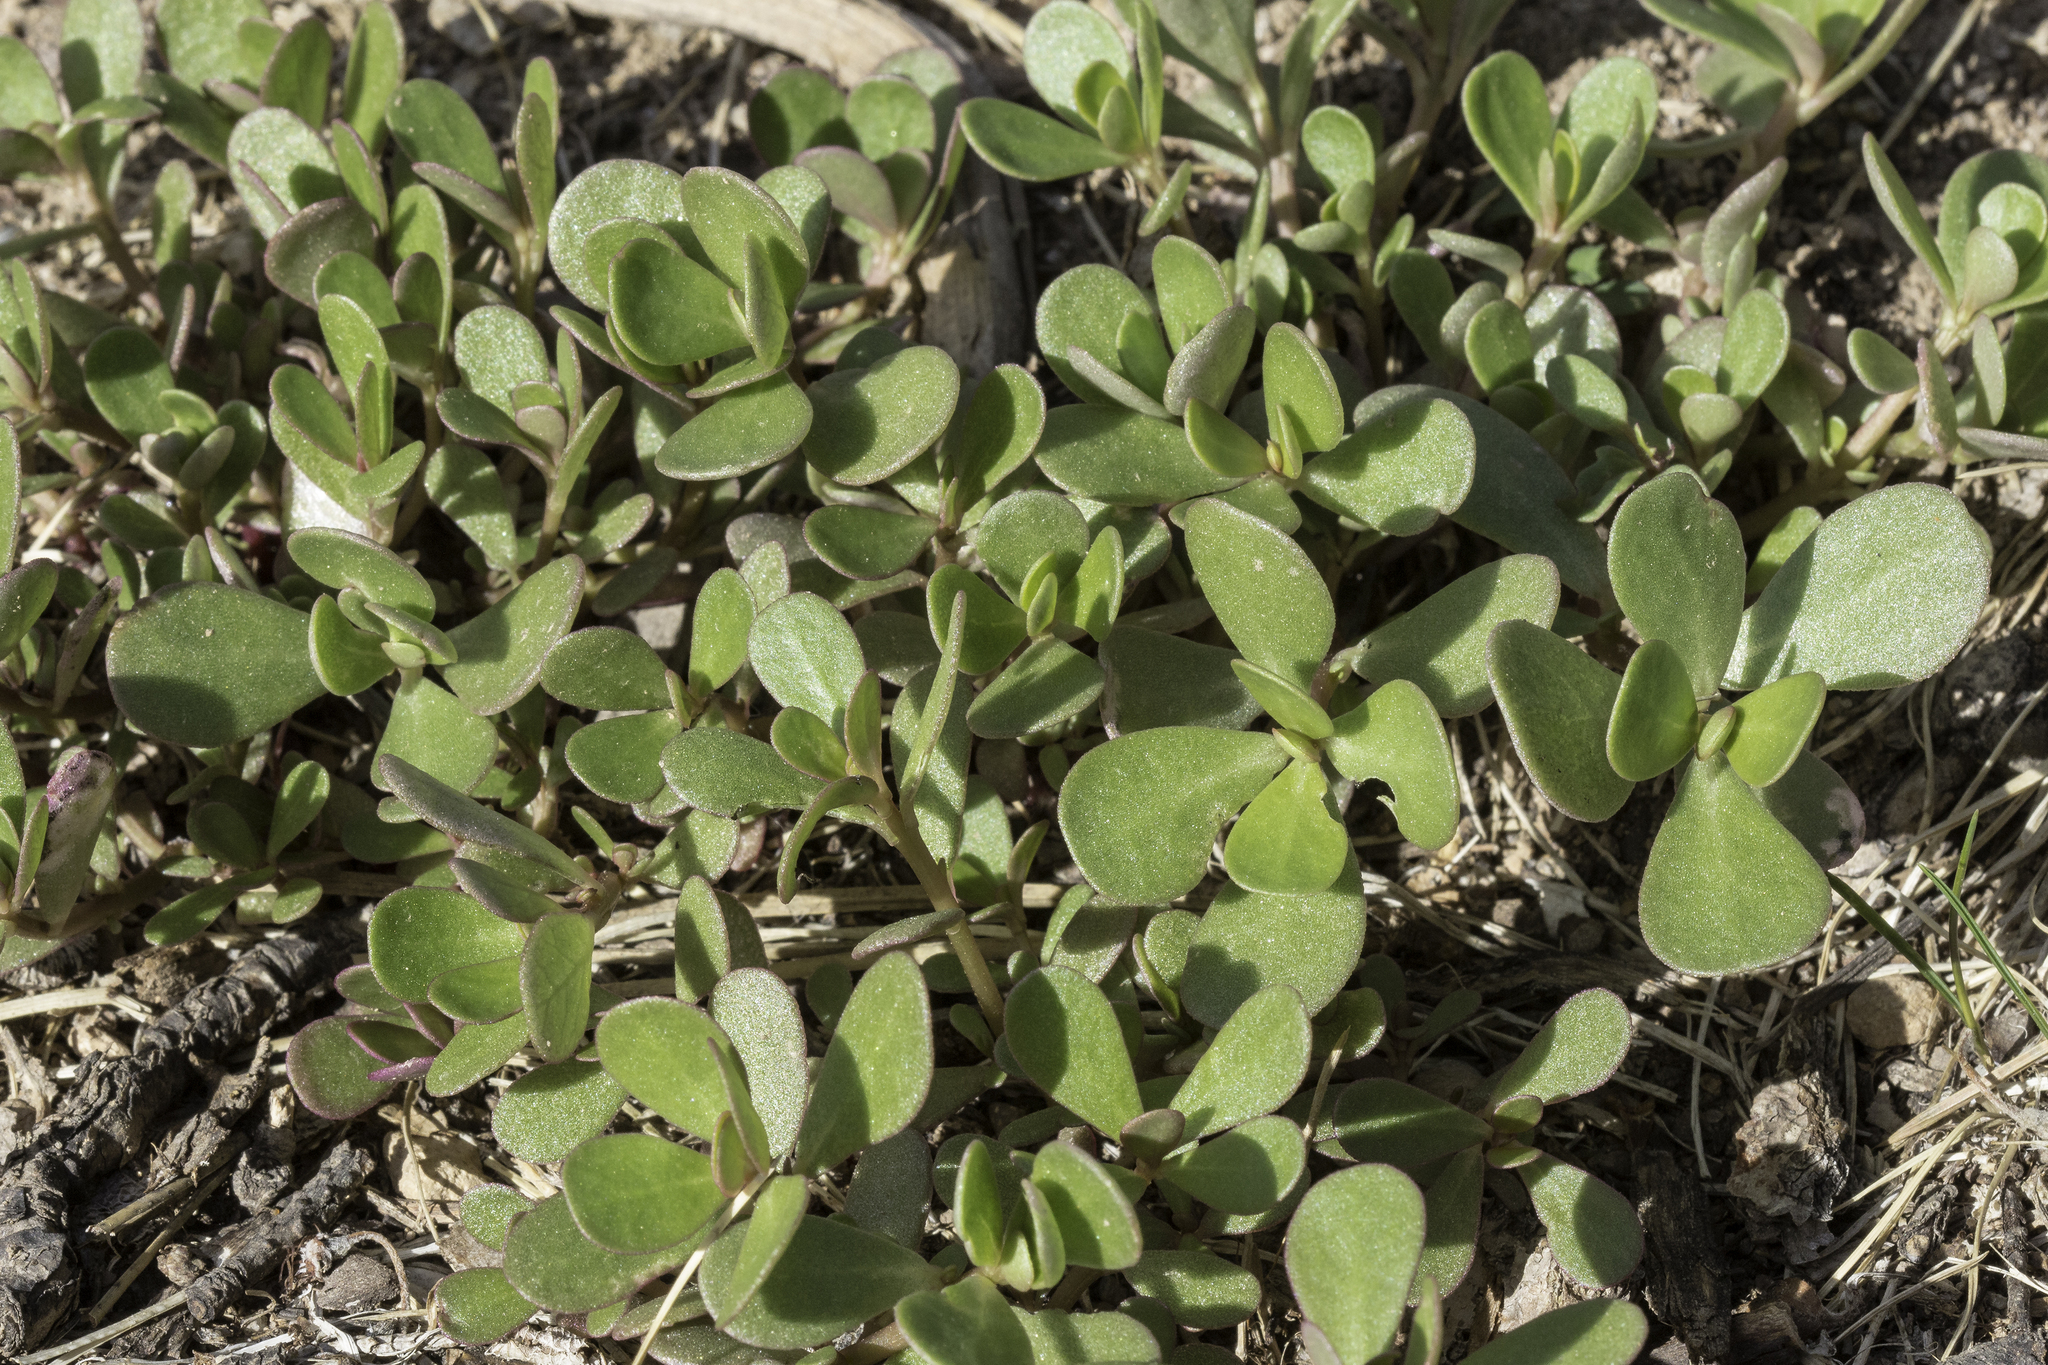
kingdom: Plantae
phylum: Tracheophyta
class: Magnoliopsida
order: Caryophyllales
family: Portulacaceae
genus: Portulaca
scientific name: Portulaca oleracea
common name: Common purslane
